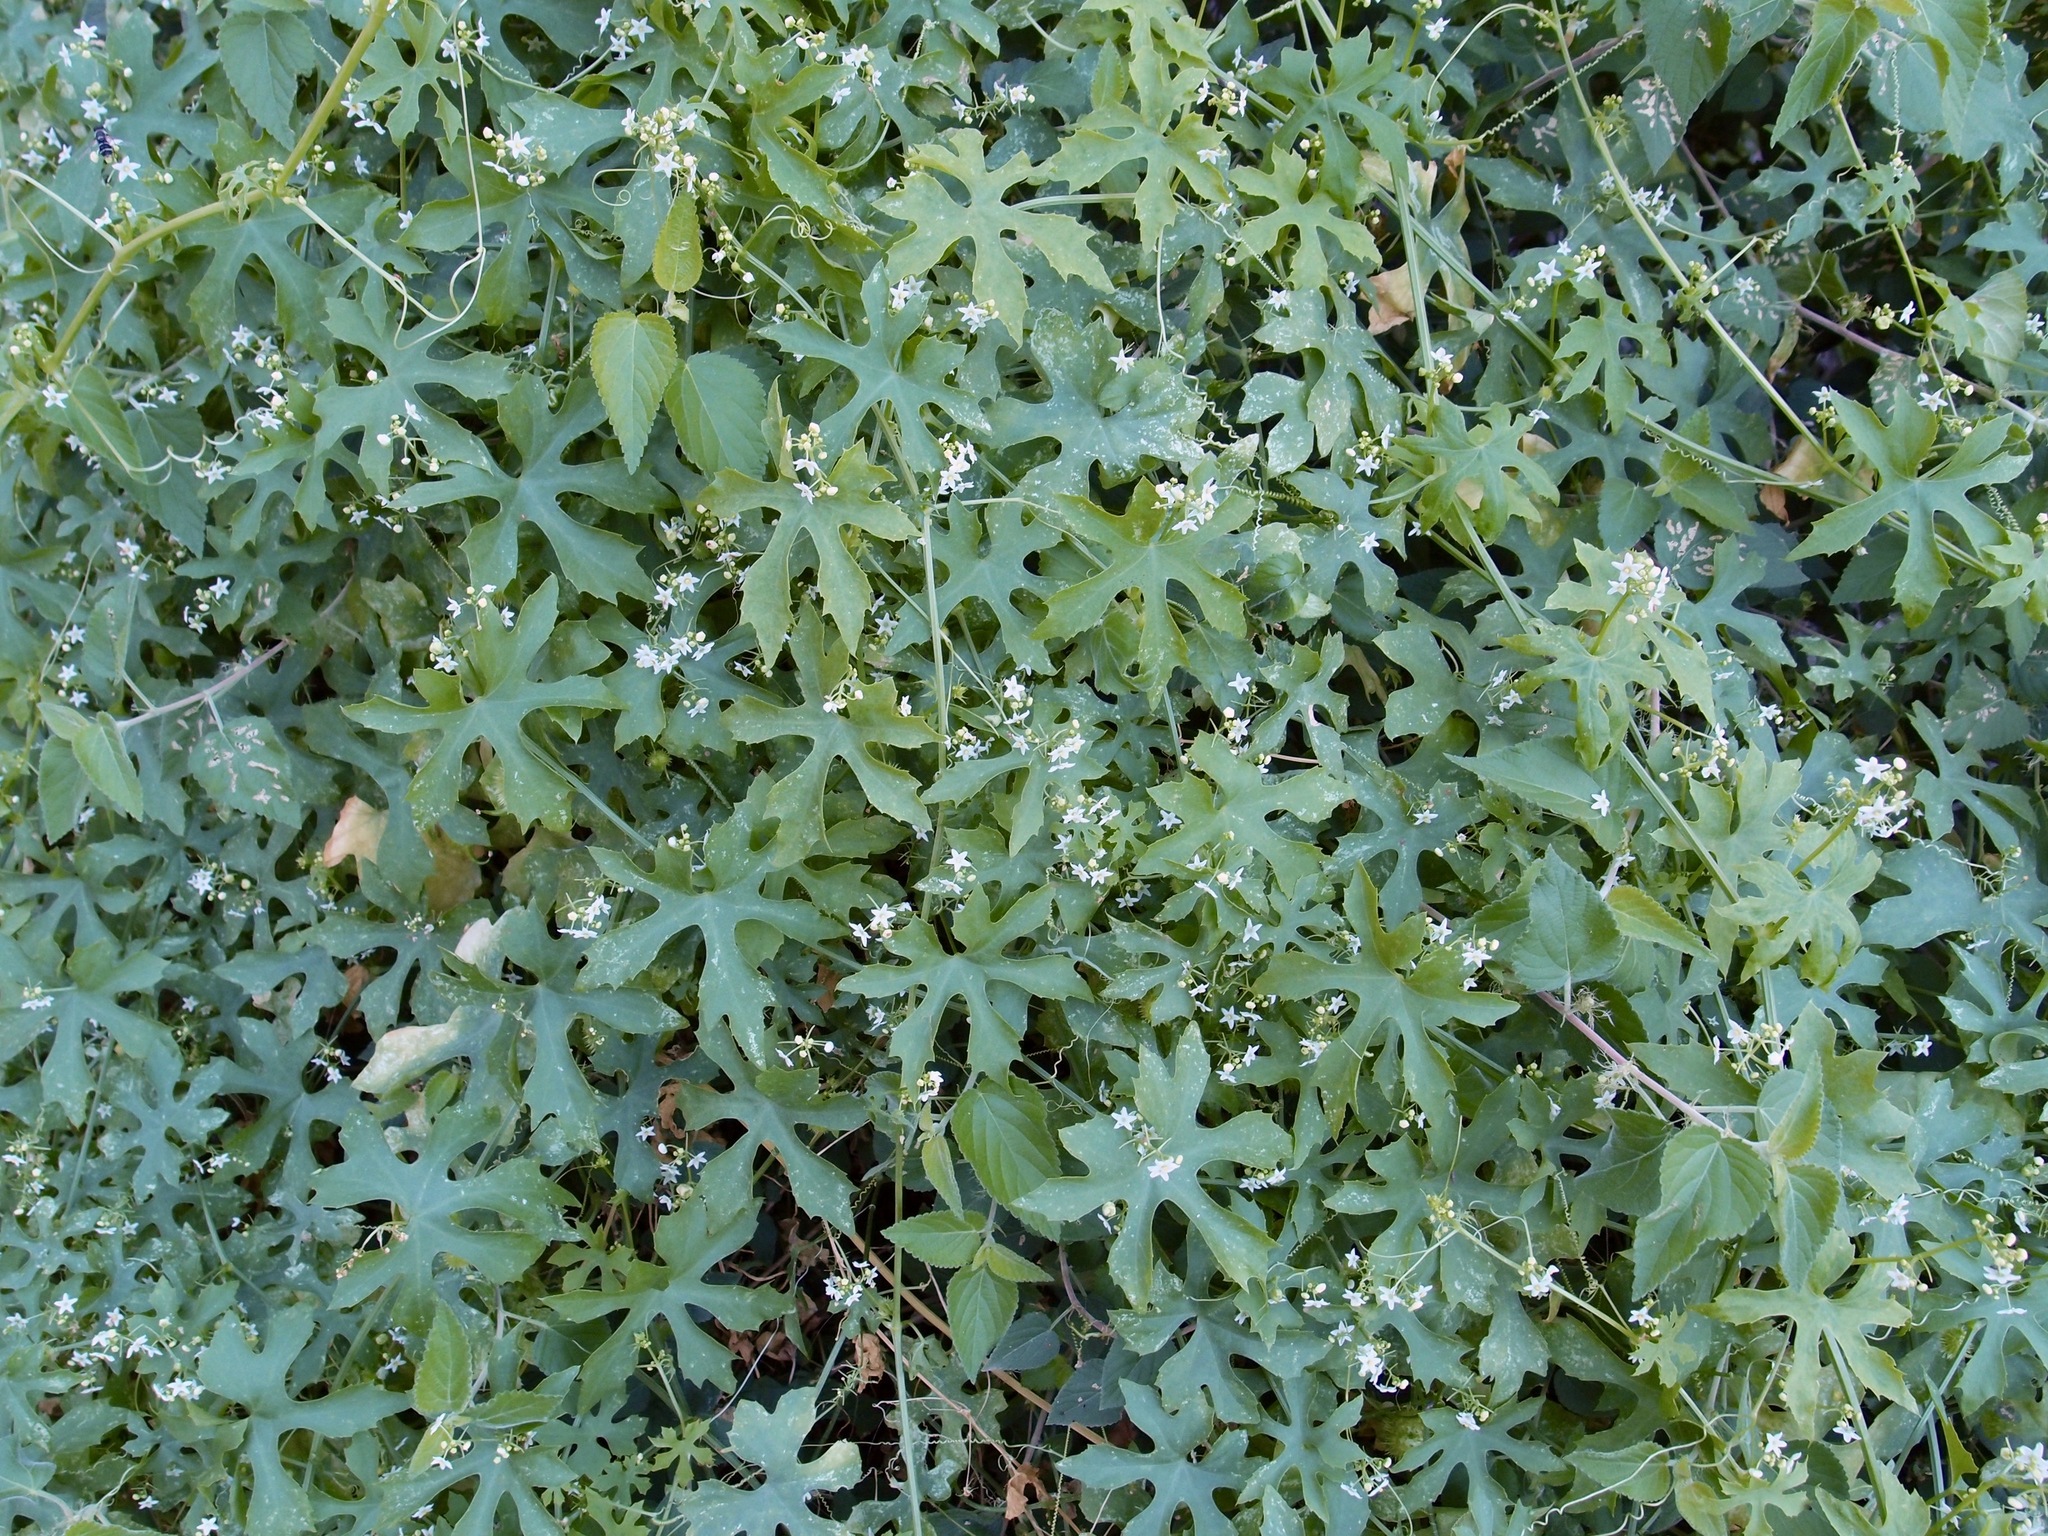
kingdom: Plantae
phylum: Tracheophyta
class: Magnoliopsida
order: Cucurbitales
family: Cucurbitaceae
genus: Echinopepon
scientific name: Echinopepon insularis
